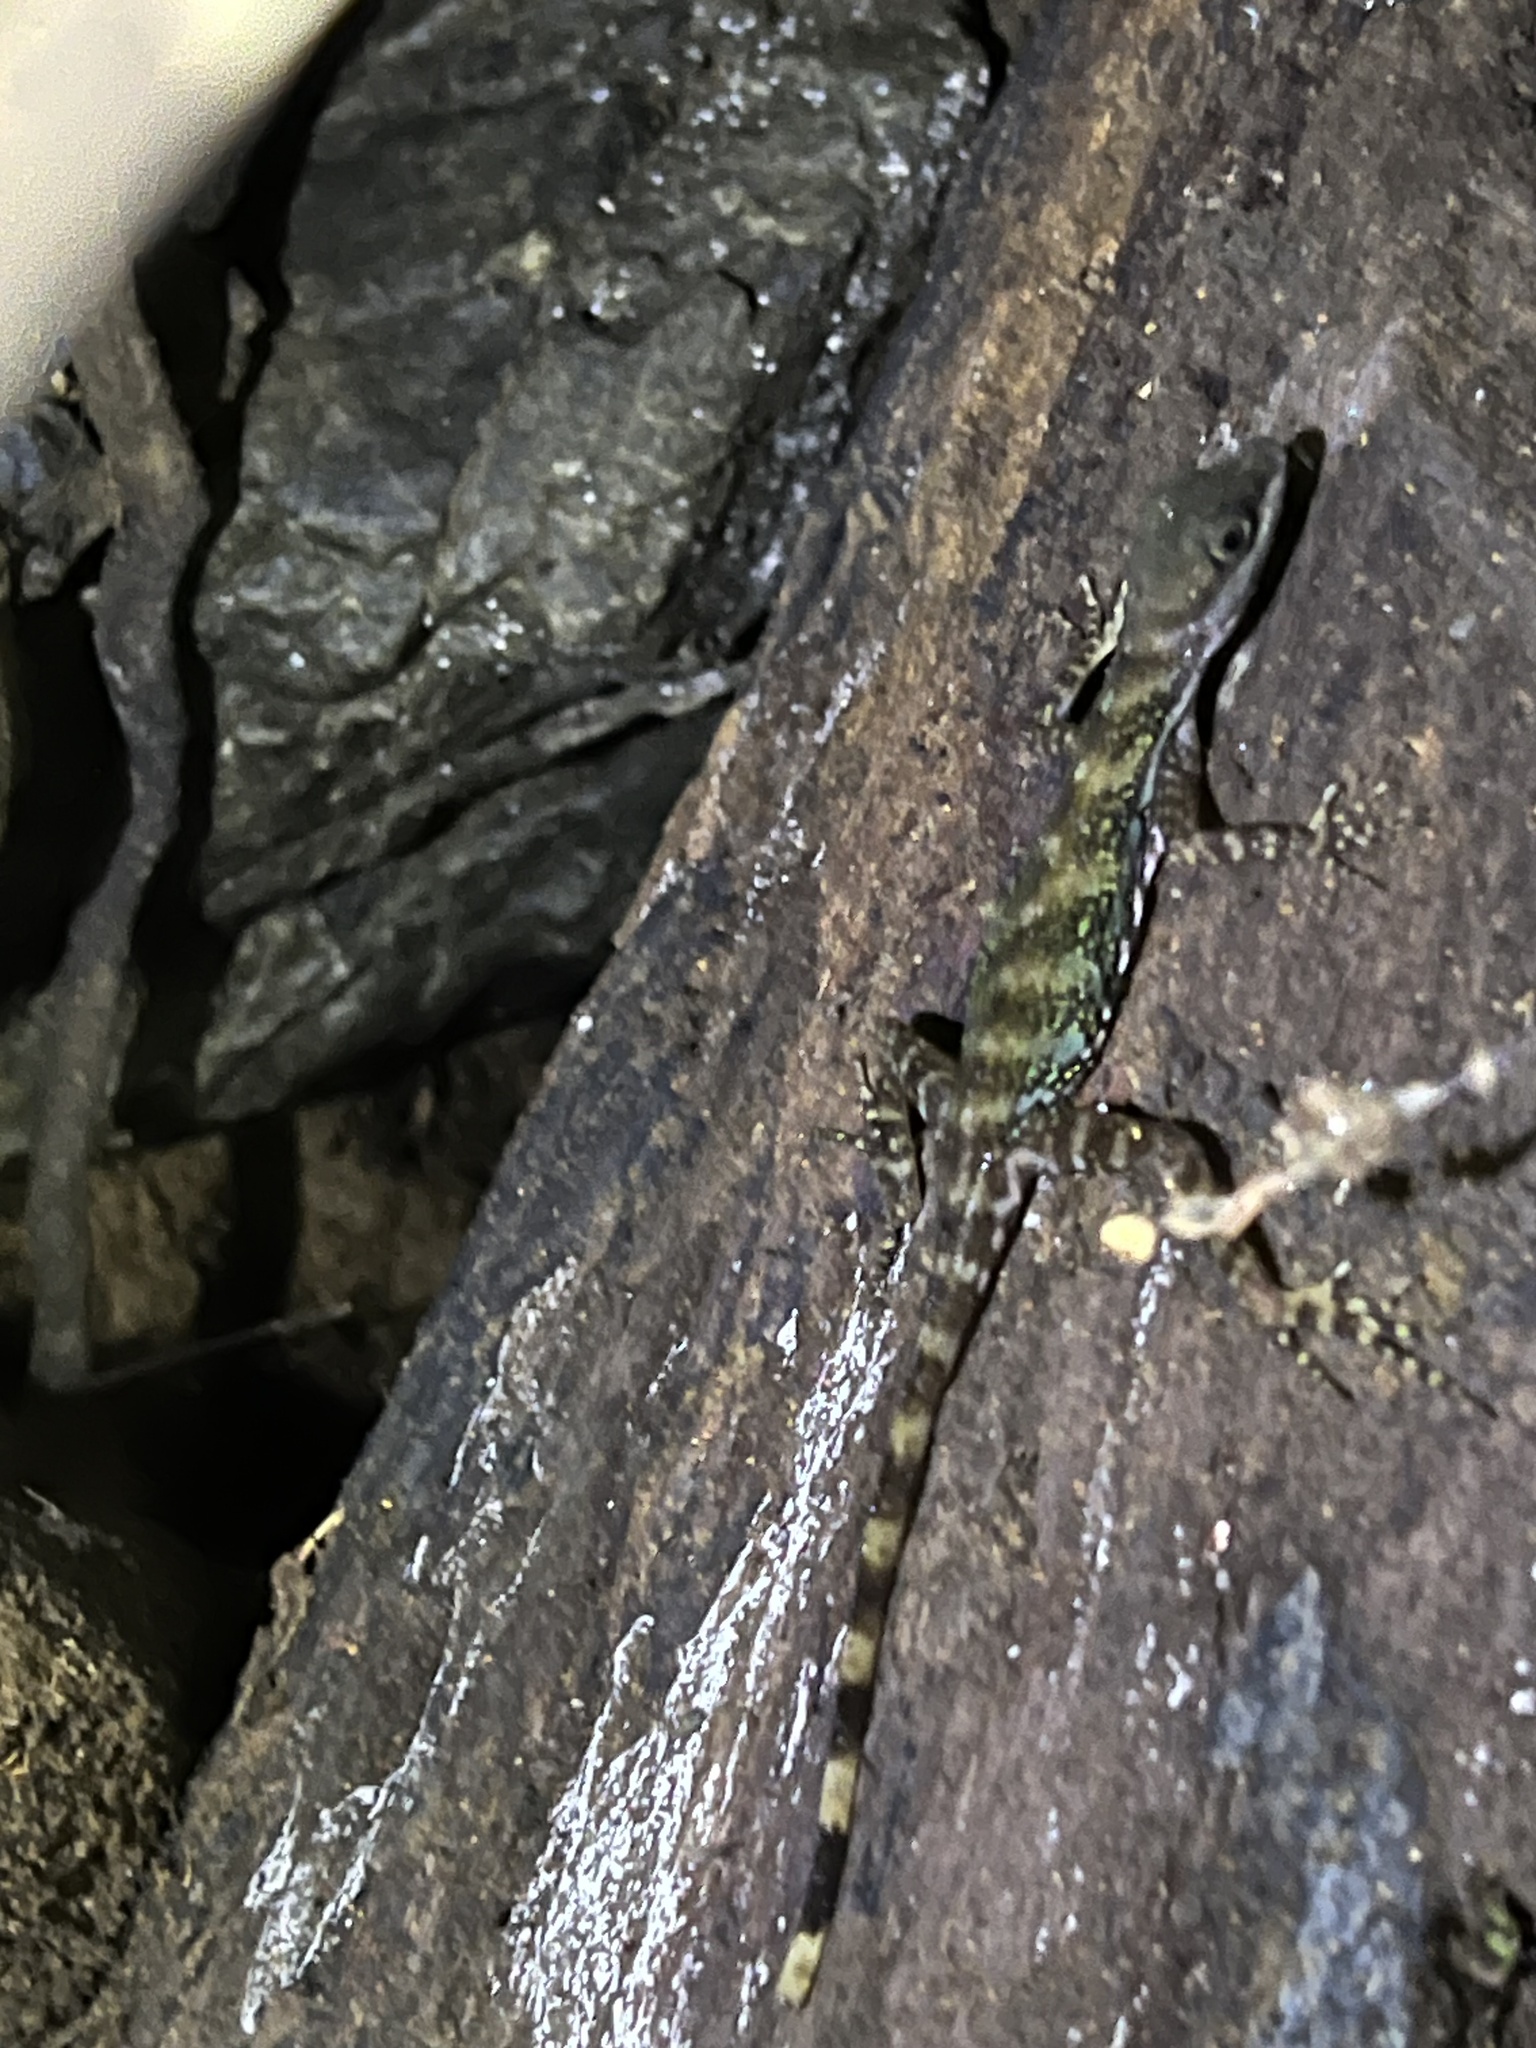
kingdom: Animalia
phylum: Chordata
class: Squamata
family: Dactyloidae
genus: Anolis
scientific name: Anolis aquaticus
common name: Aquatic anole
